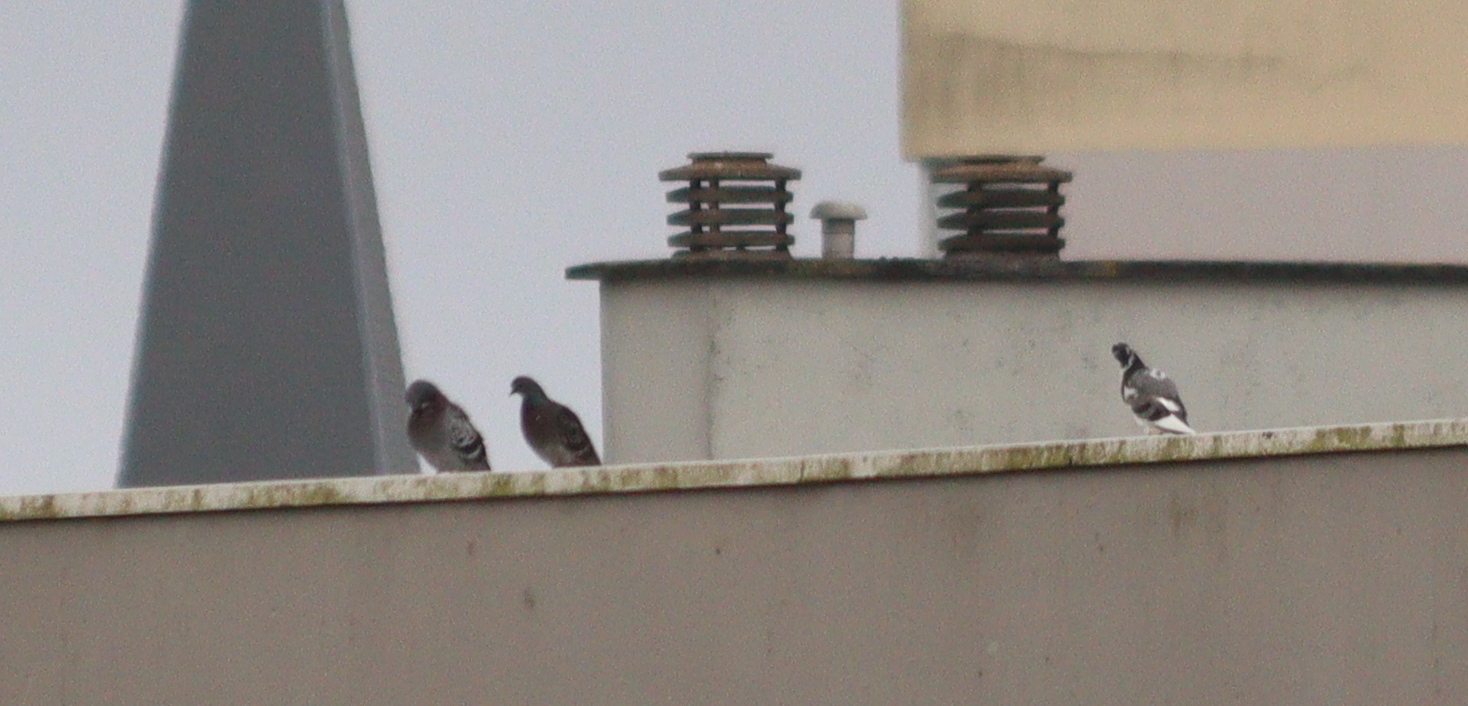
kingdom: Animalia
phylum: Chordata
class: Aves
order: Columbiformes
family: Columbidae
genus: Columba
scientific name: Columba livia
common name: Rock pigeon
